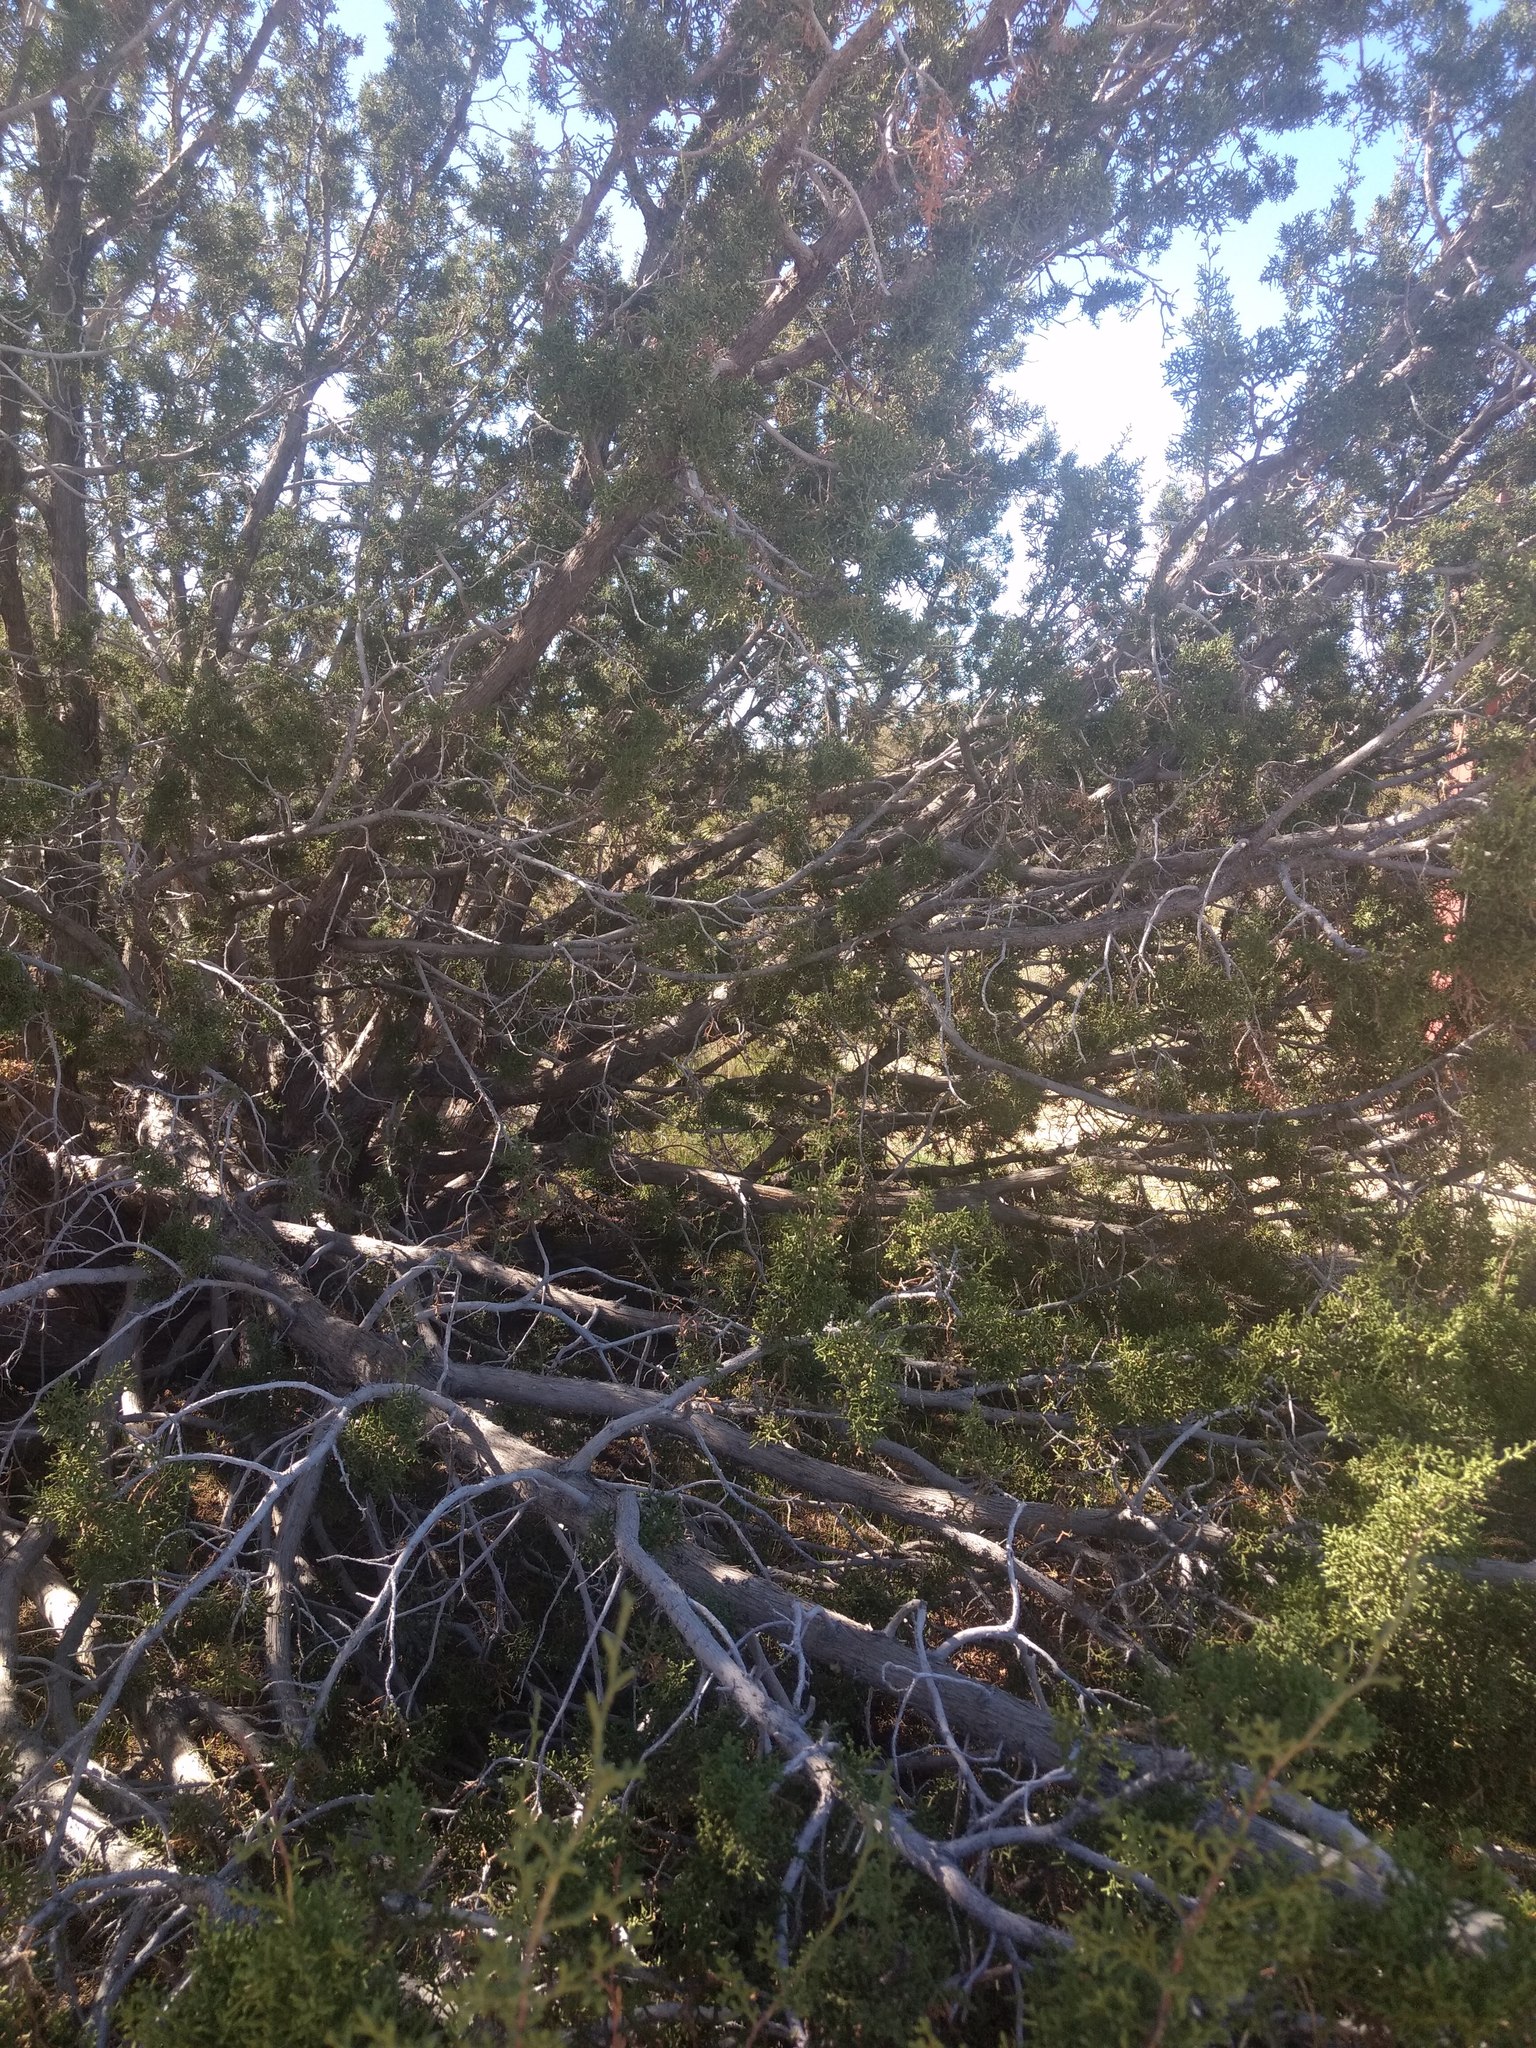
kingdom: Plantae
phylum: Tracheophyta
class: Pinopsida
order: Pinales
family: Cupressaceae
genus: Juniperus
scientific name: Juniperus californica
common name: California juniper
